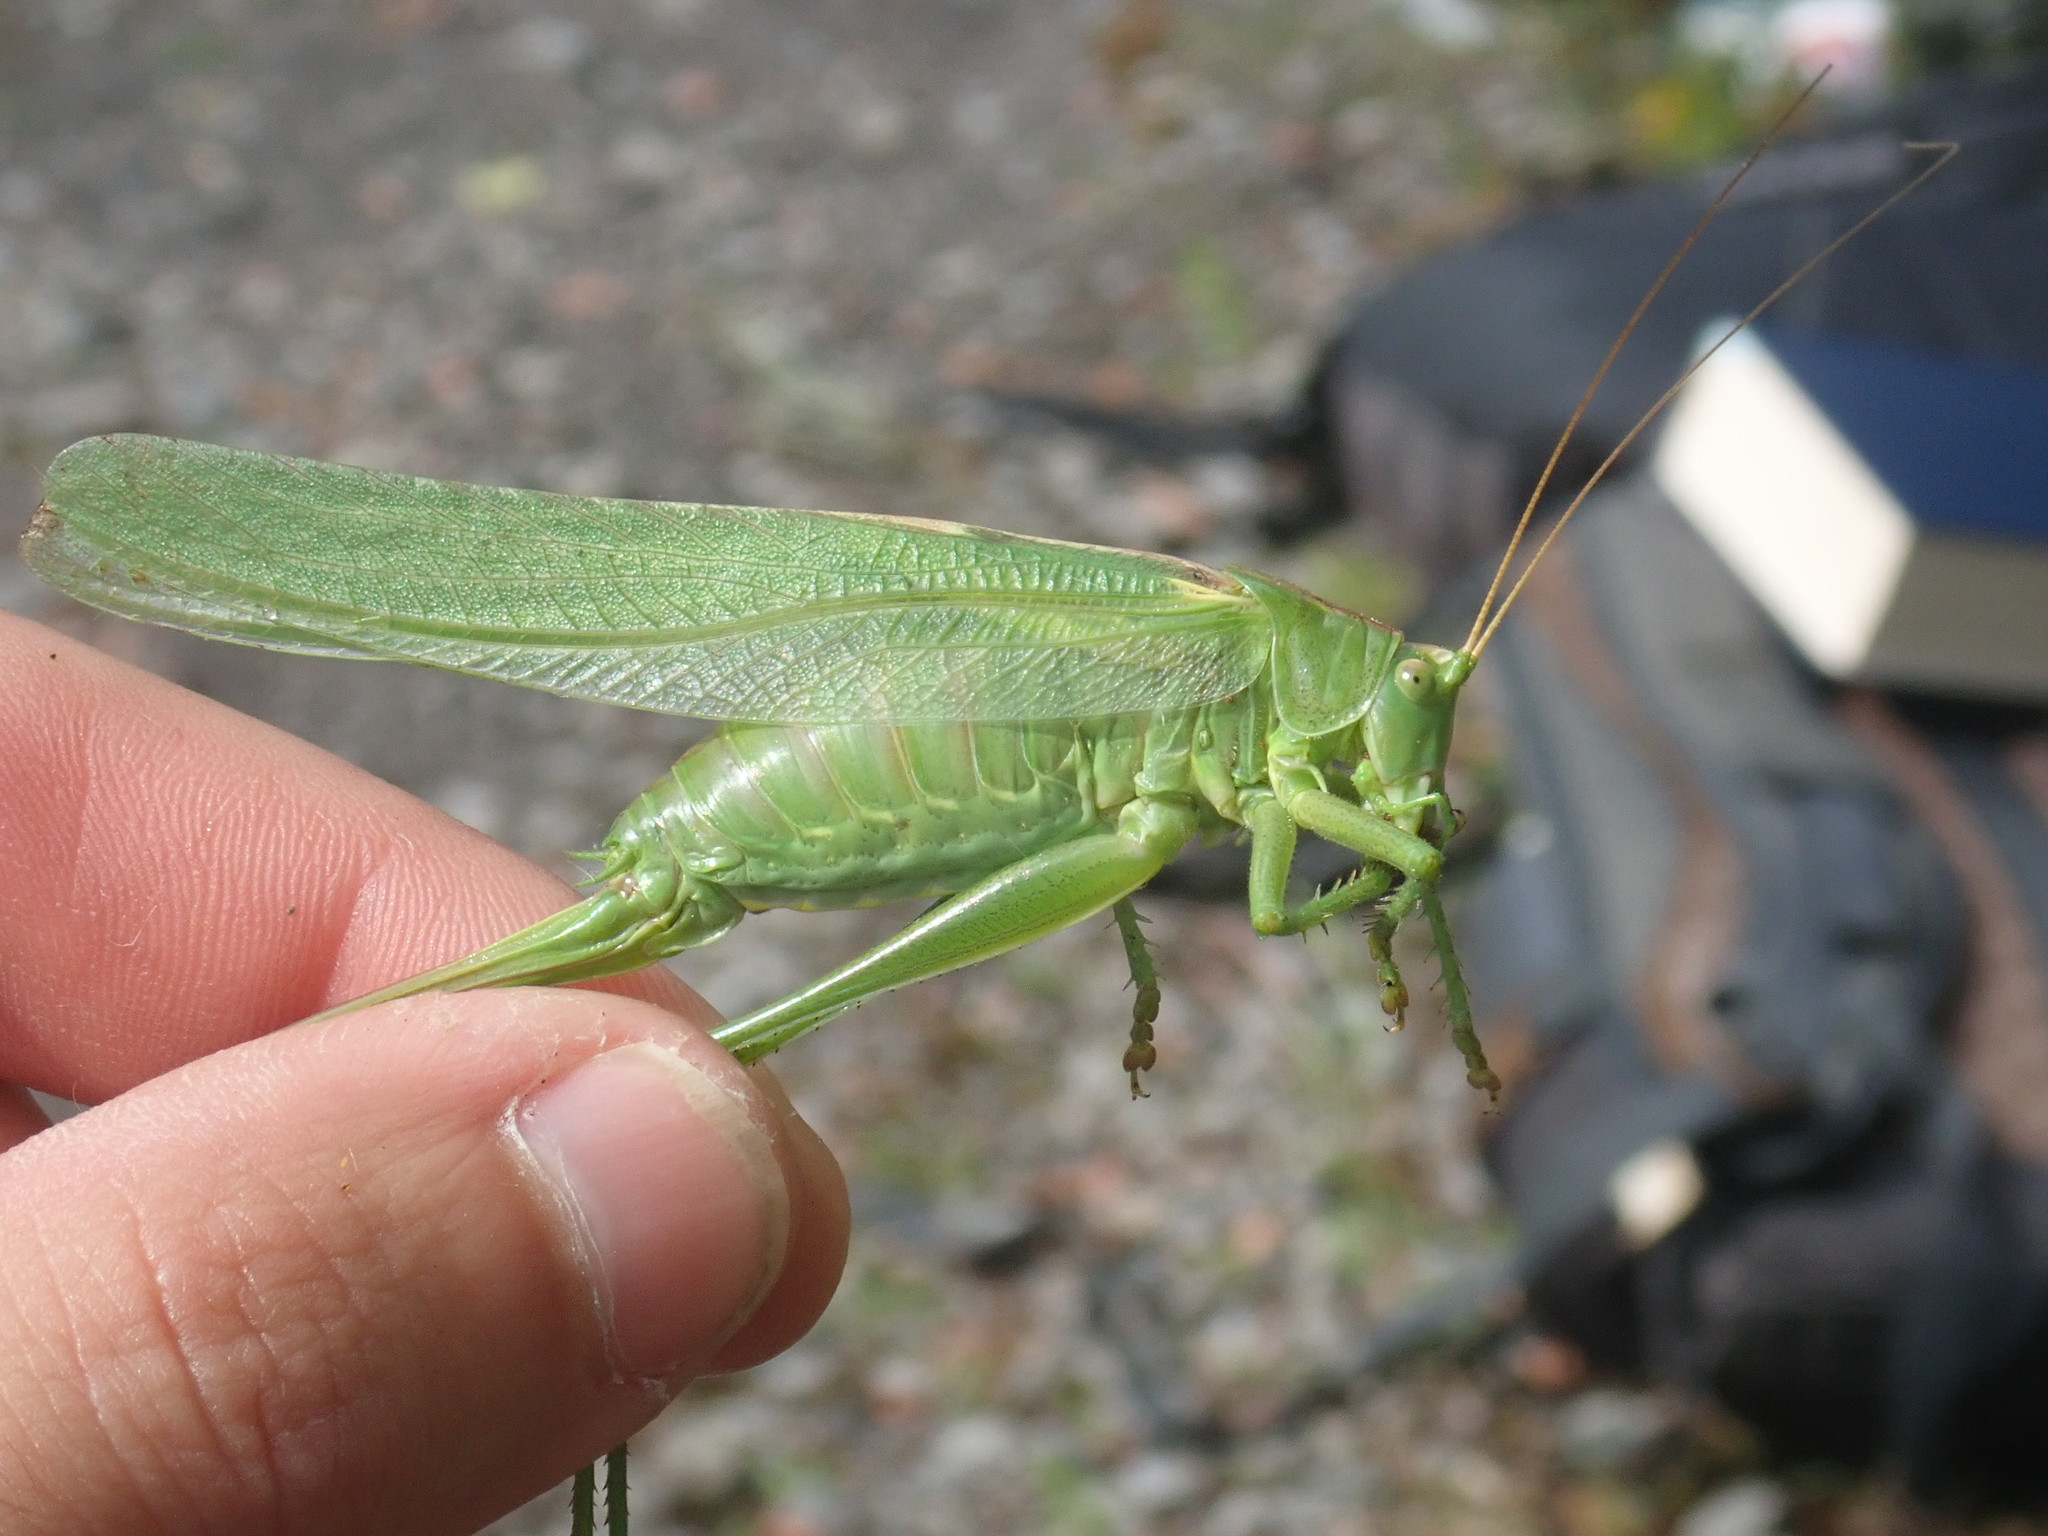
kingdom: Animalia
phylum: Arthropoda
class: Insecta
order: Orthoptera
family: Tettigoniidae
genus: Tettigonia
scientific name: Tettigonia viridissima
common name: Great green bush-cricket
